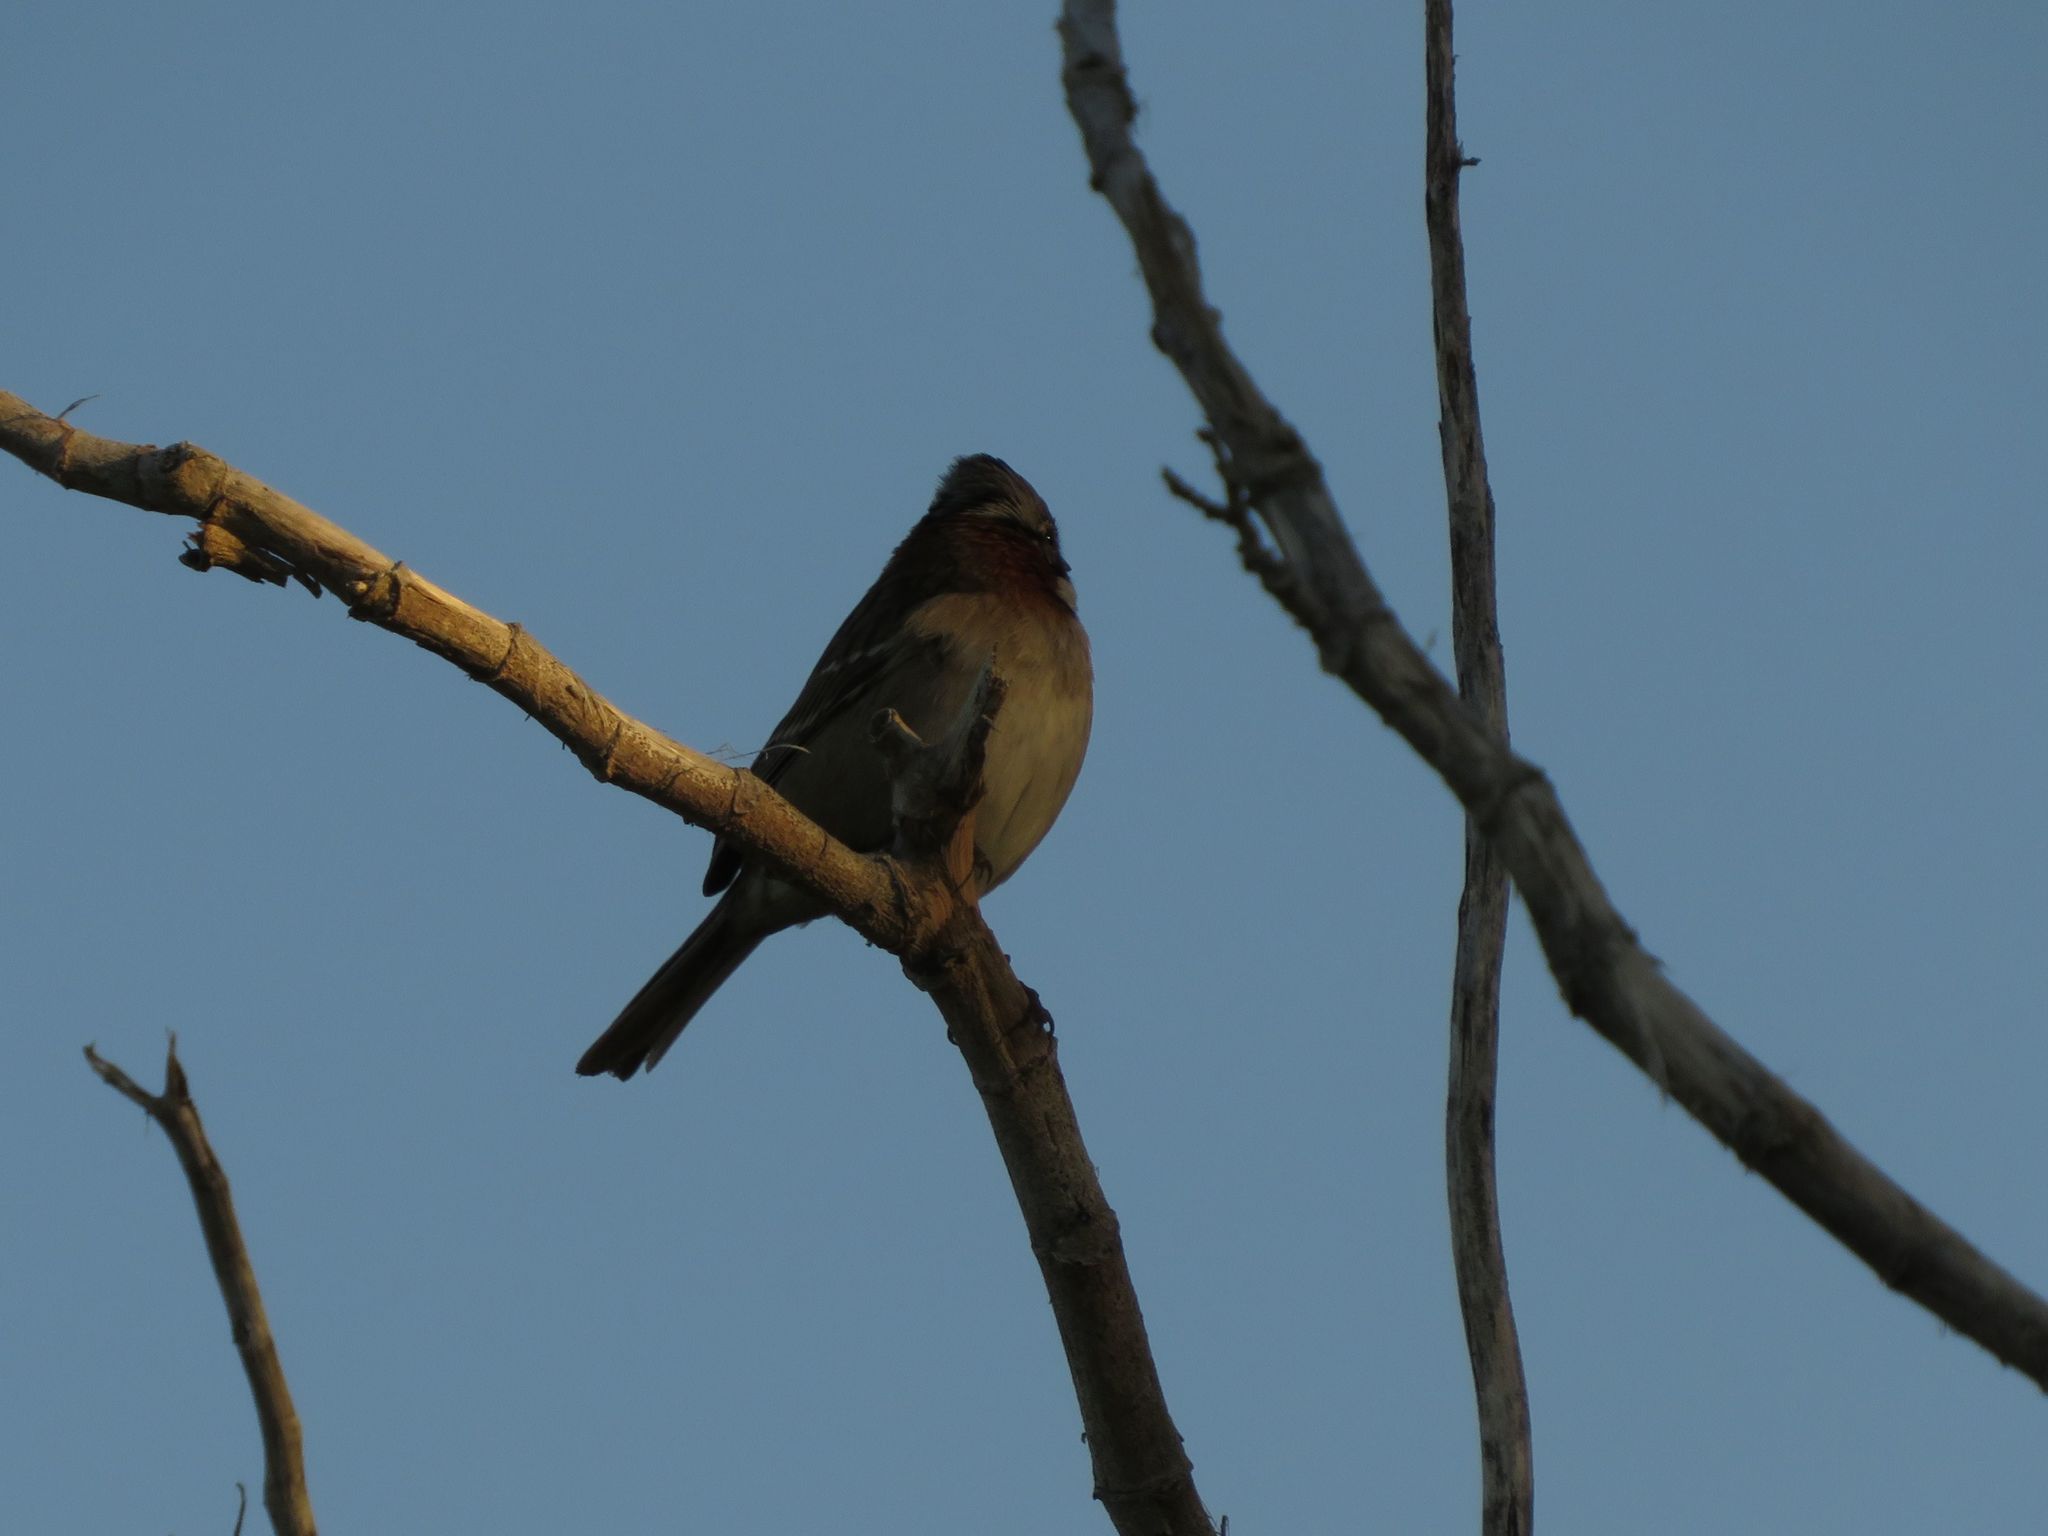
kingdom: Animalia
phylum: Chordata
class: Aves
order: Passeriformes
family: Passerellidae
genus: Zonotrichia
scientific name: Zonotrichia capensis
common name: Rufous-collared sparrow
